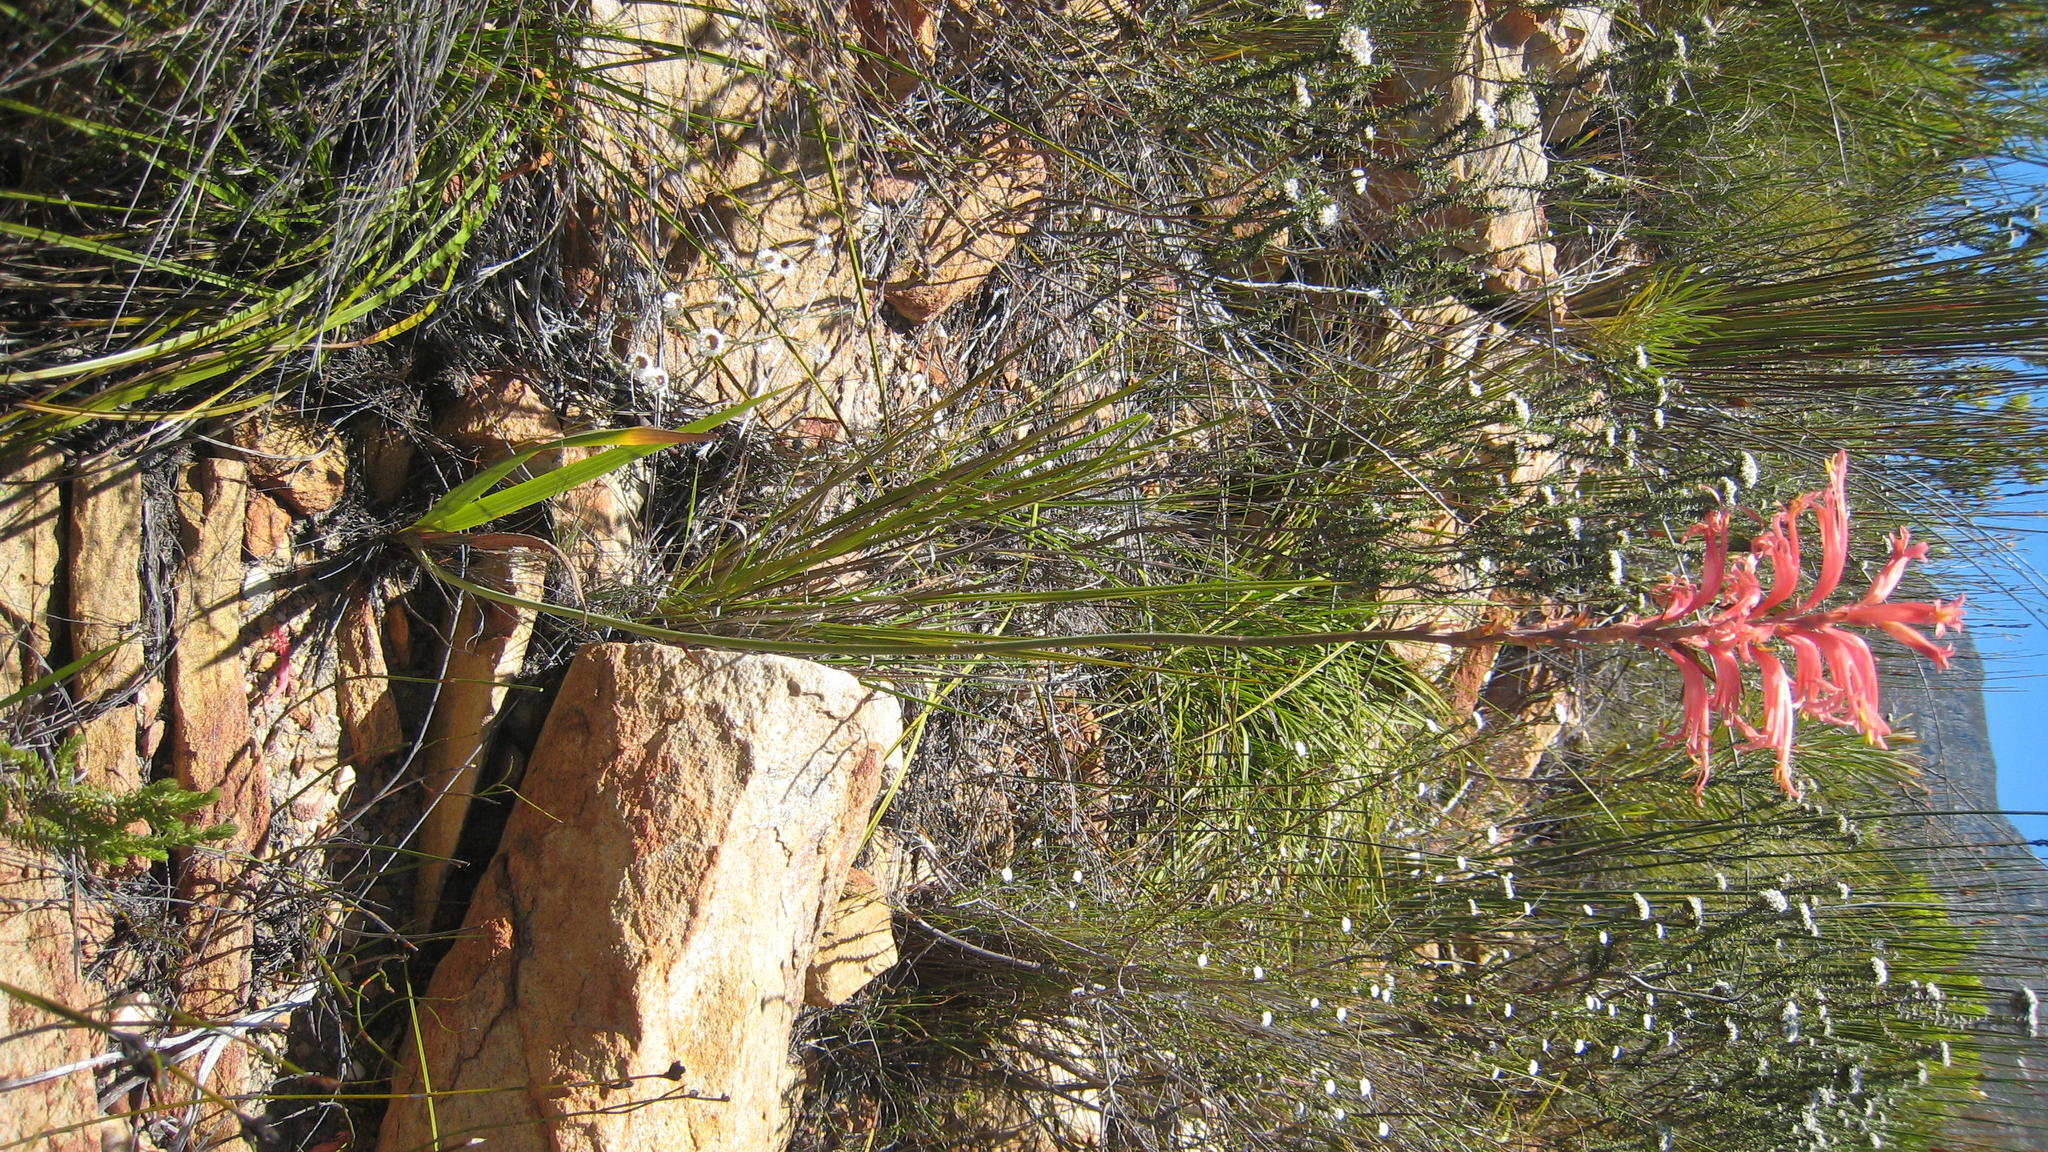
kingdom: Plantae
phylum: Tracheophyta
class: Liliopsida
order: Asparagales
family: Iridaceae
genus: Tritoniopsis
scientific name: Tritoniopsis antholyza
